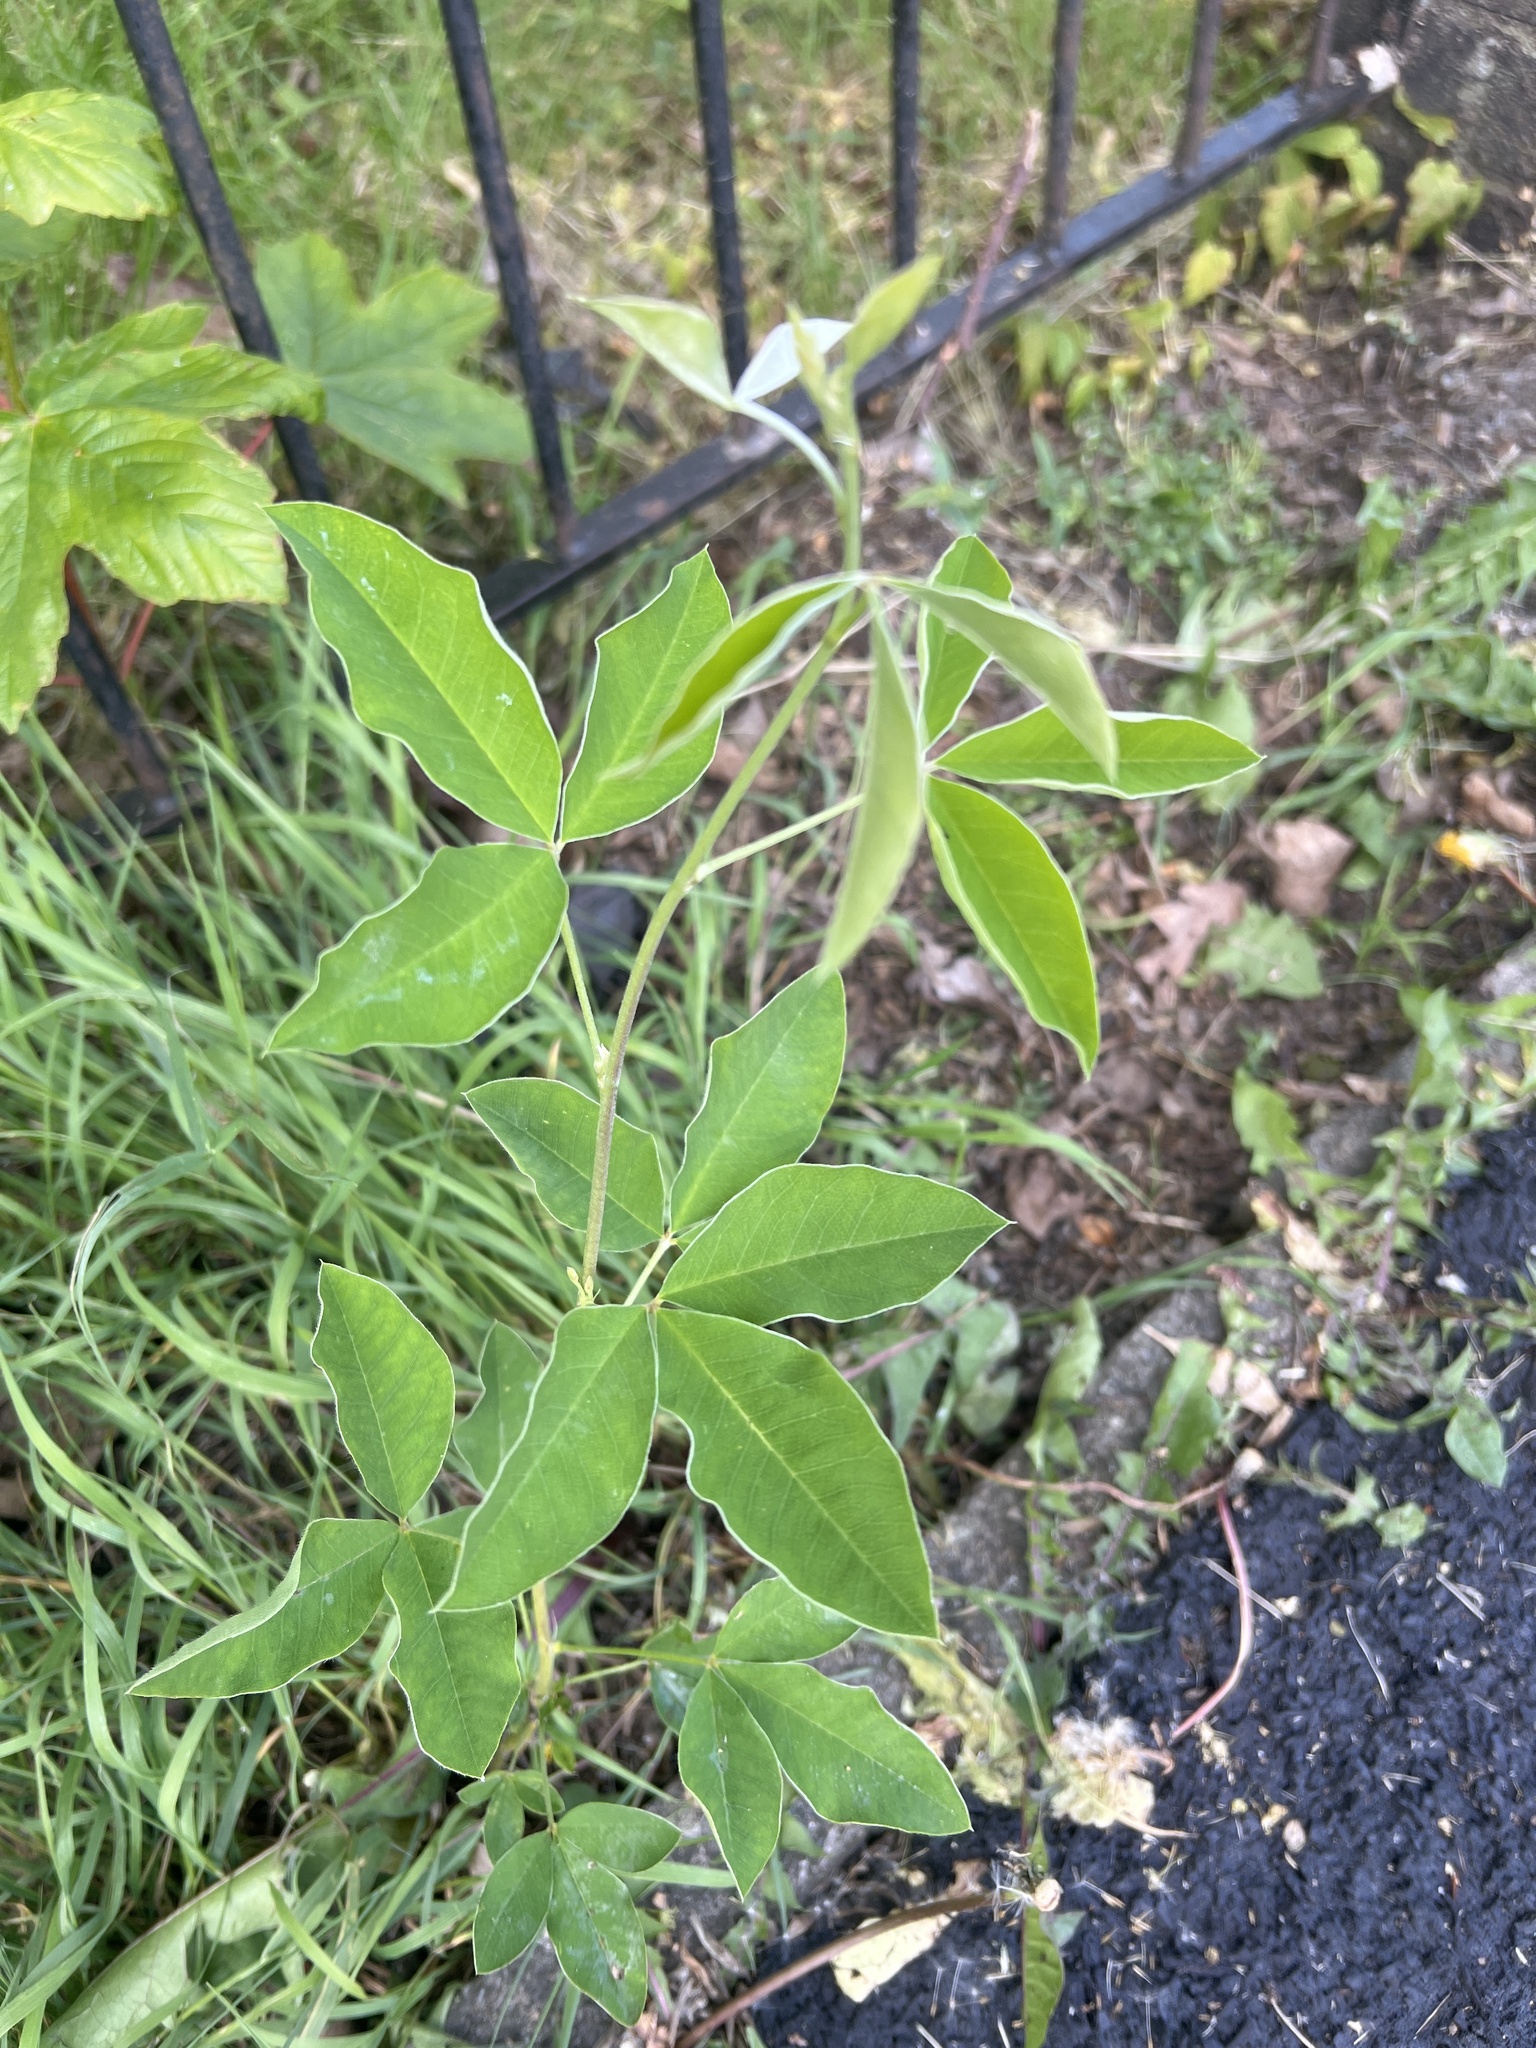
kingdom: Plantae
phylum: Tracheophyta
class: Magnoliopsida
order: Fabales
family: Fabaceae
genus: Laburnum
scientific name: Laburnum anagyroides
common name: Laburnum
